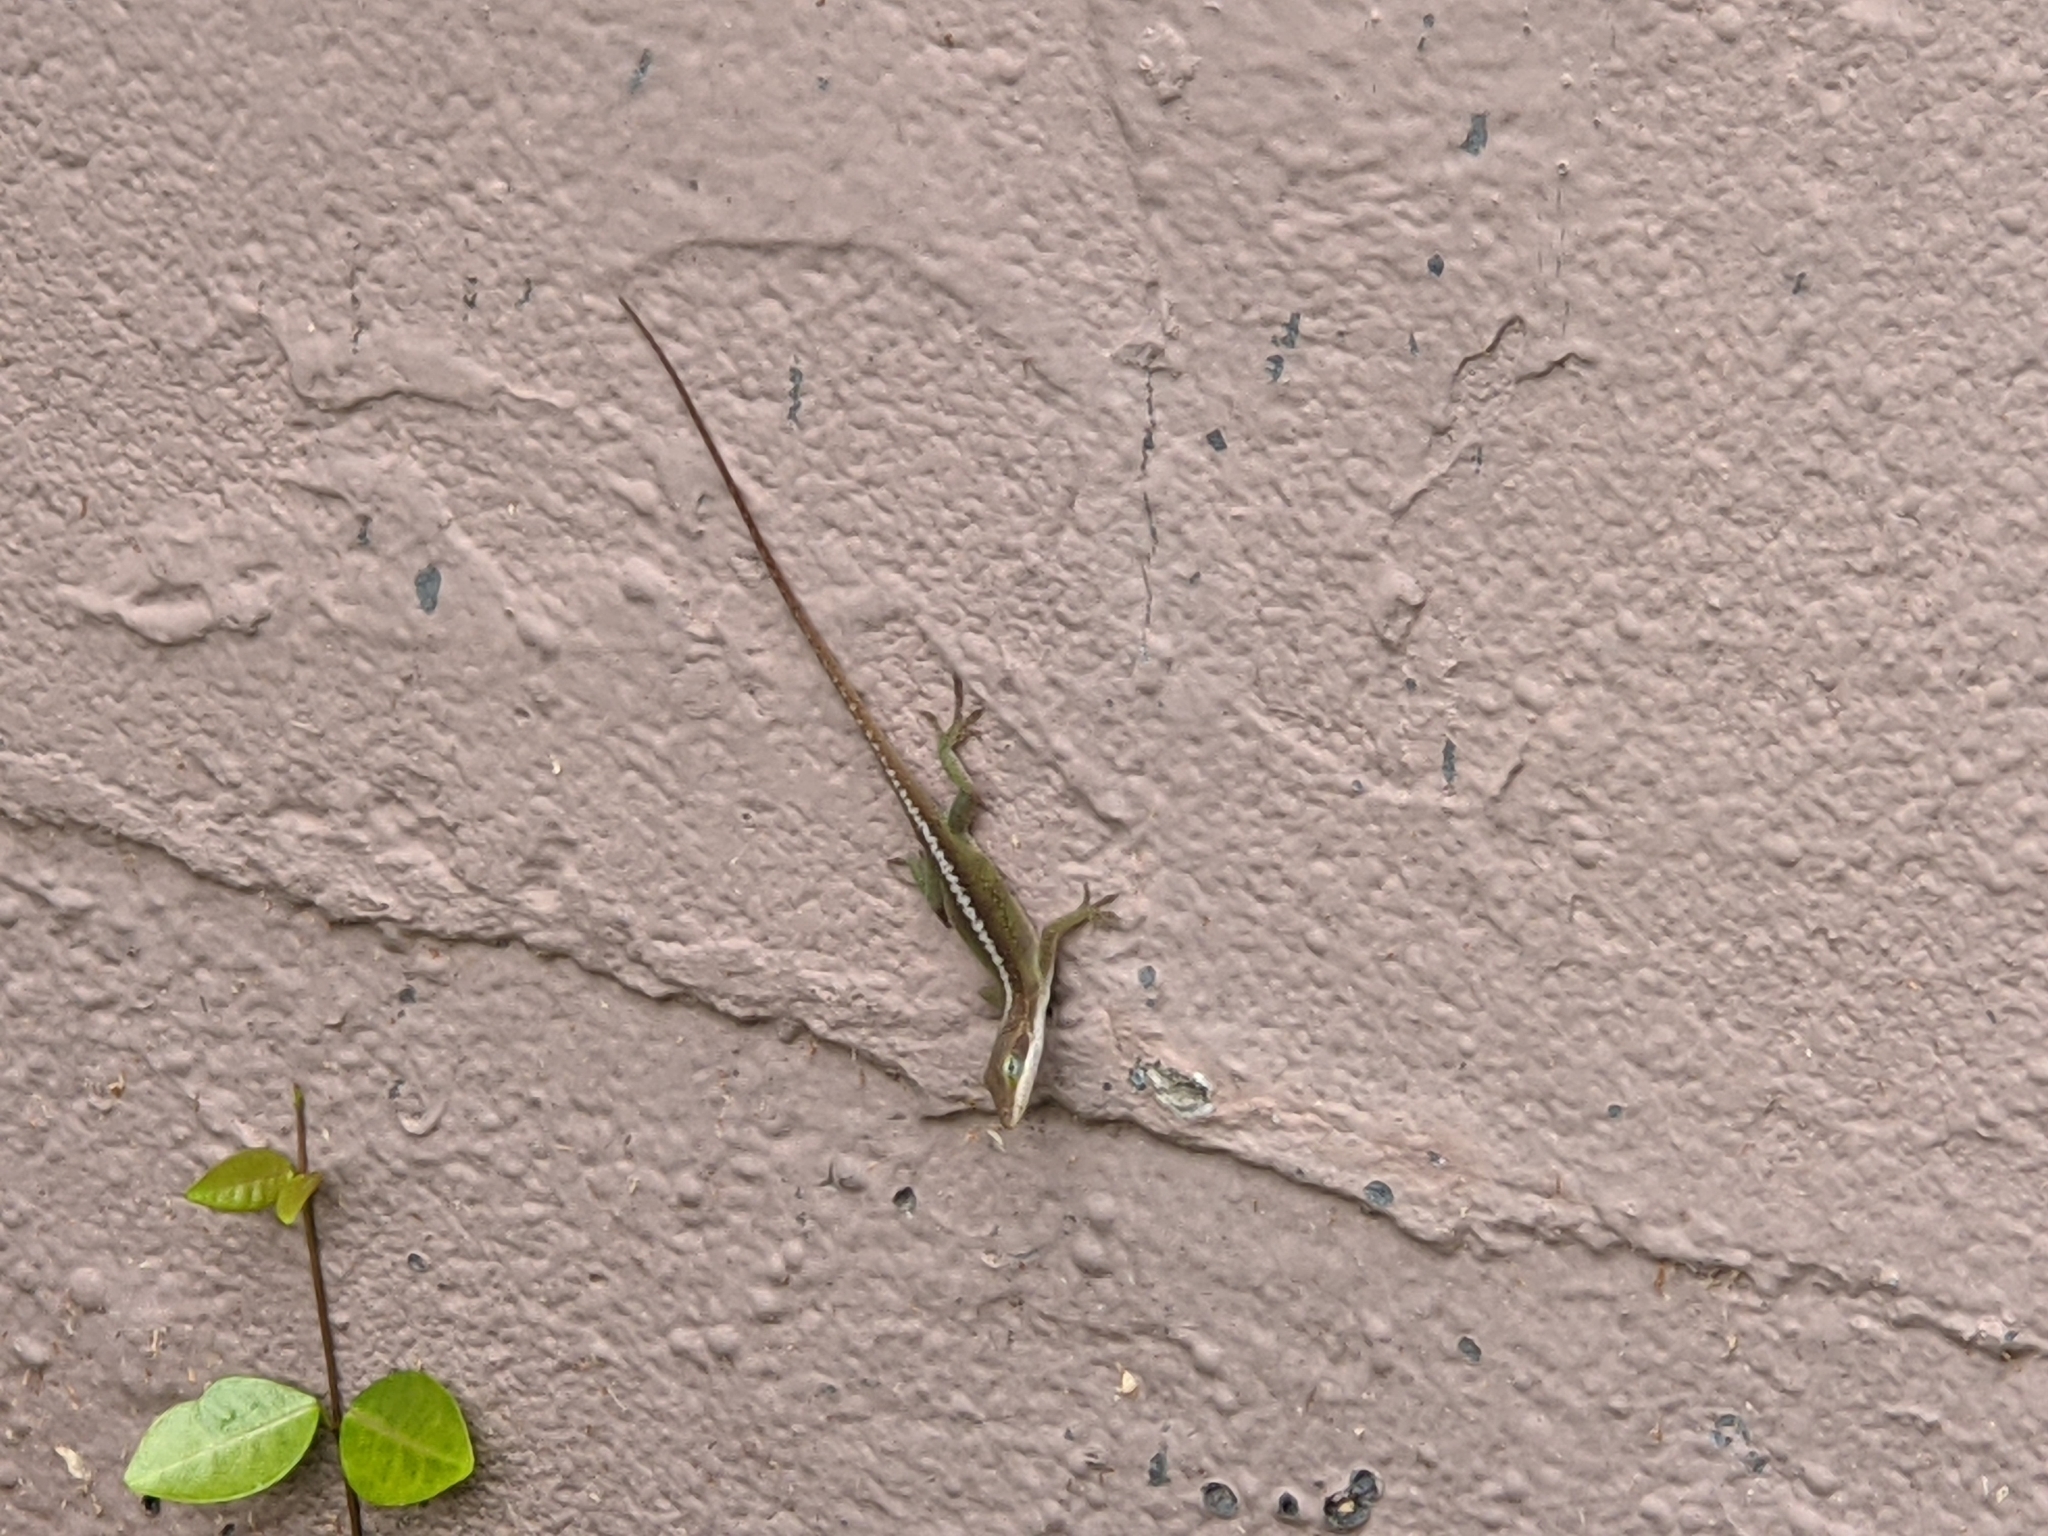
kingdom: Animalia
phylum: Chordata
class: Squamata
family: Dactyloidae
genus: Anolis
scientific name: Anolis carolinensis
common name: Green anole
